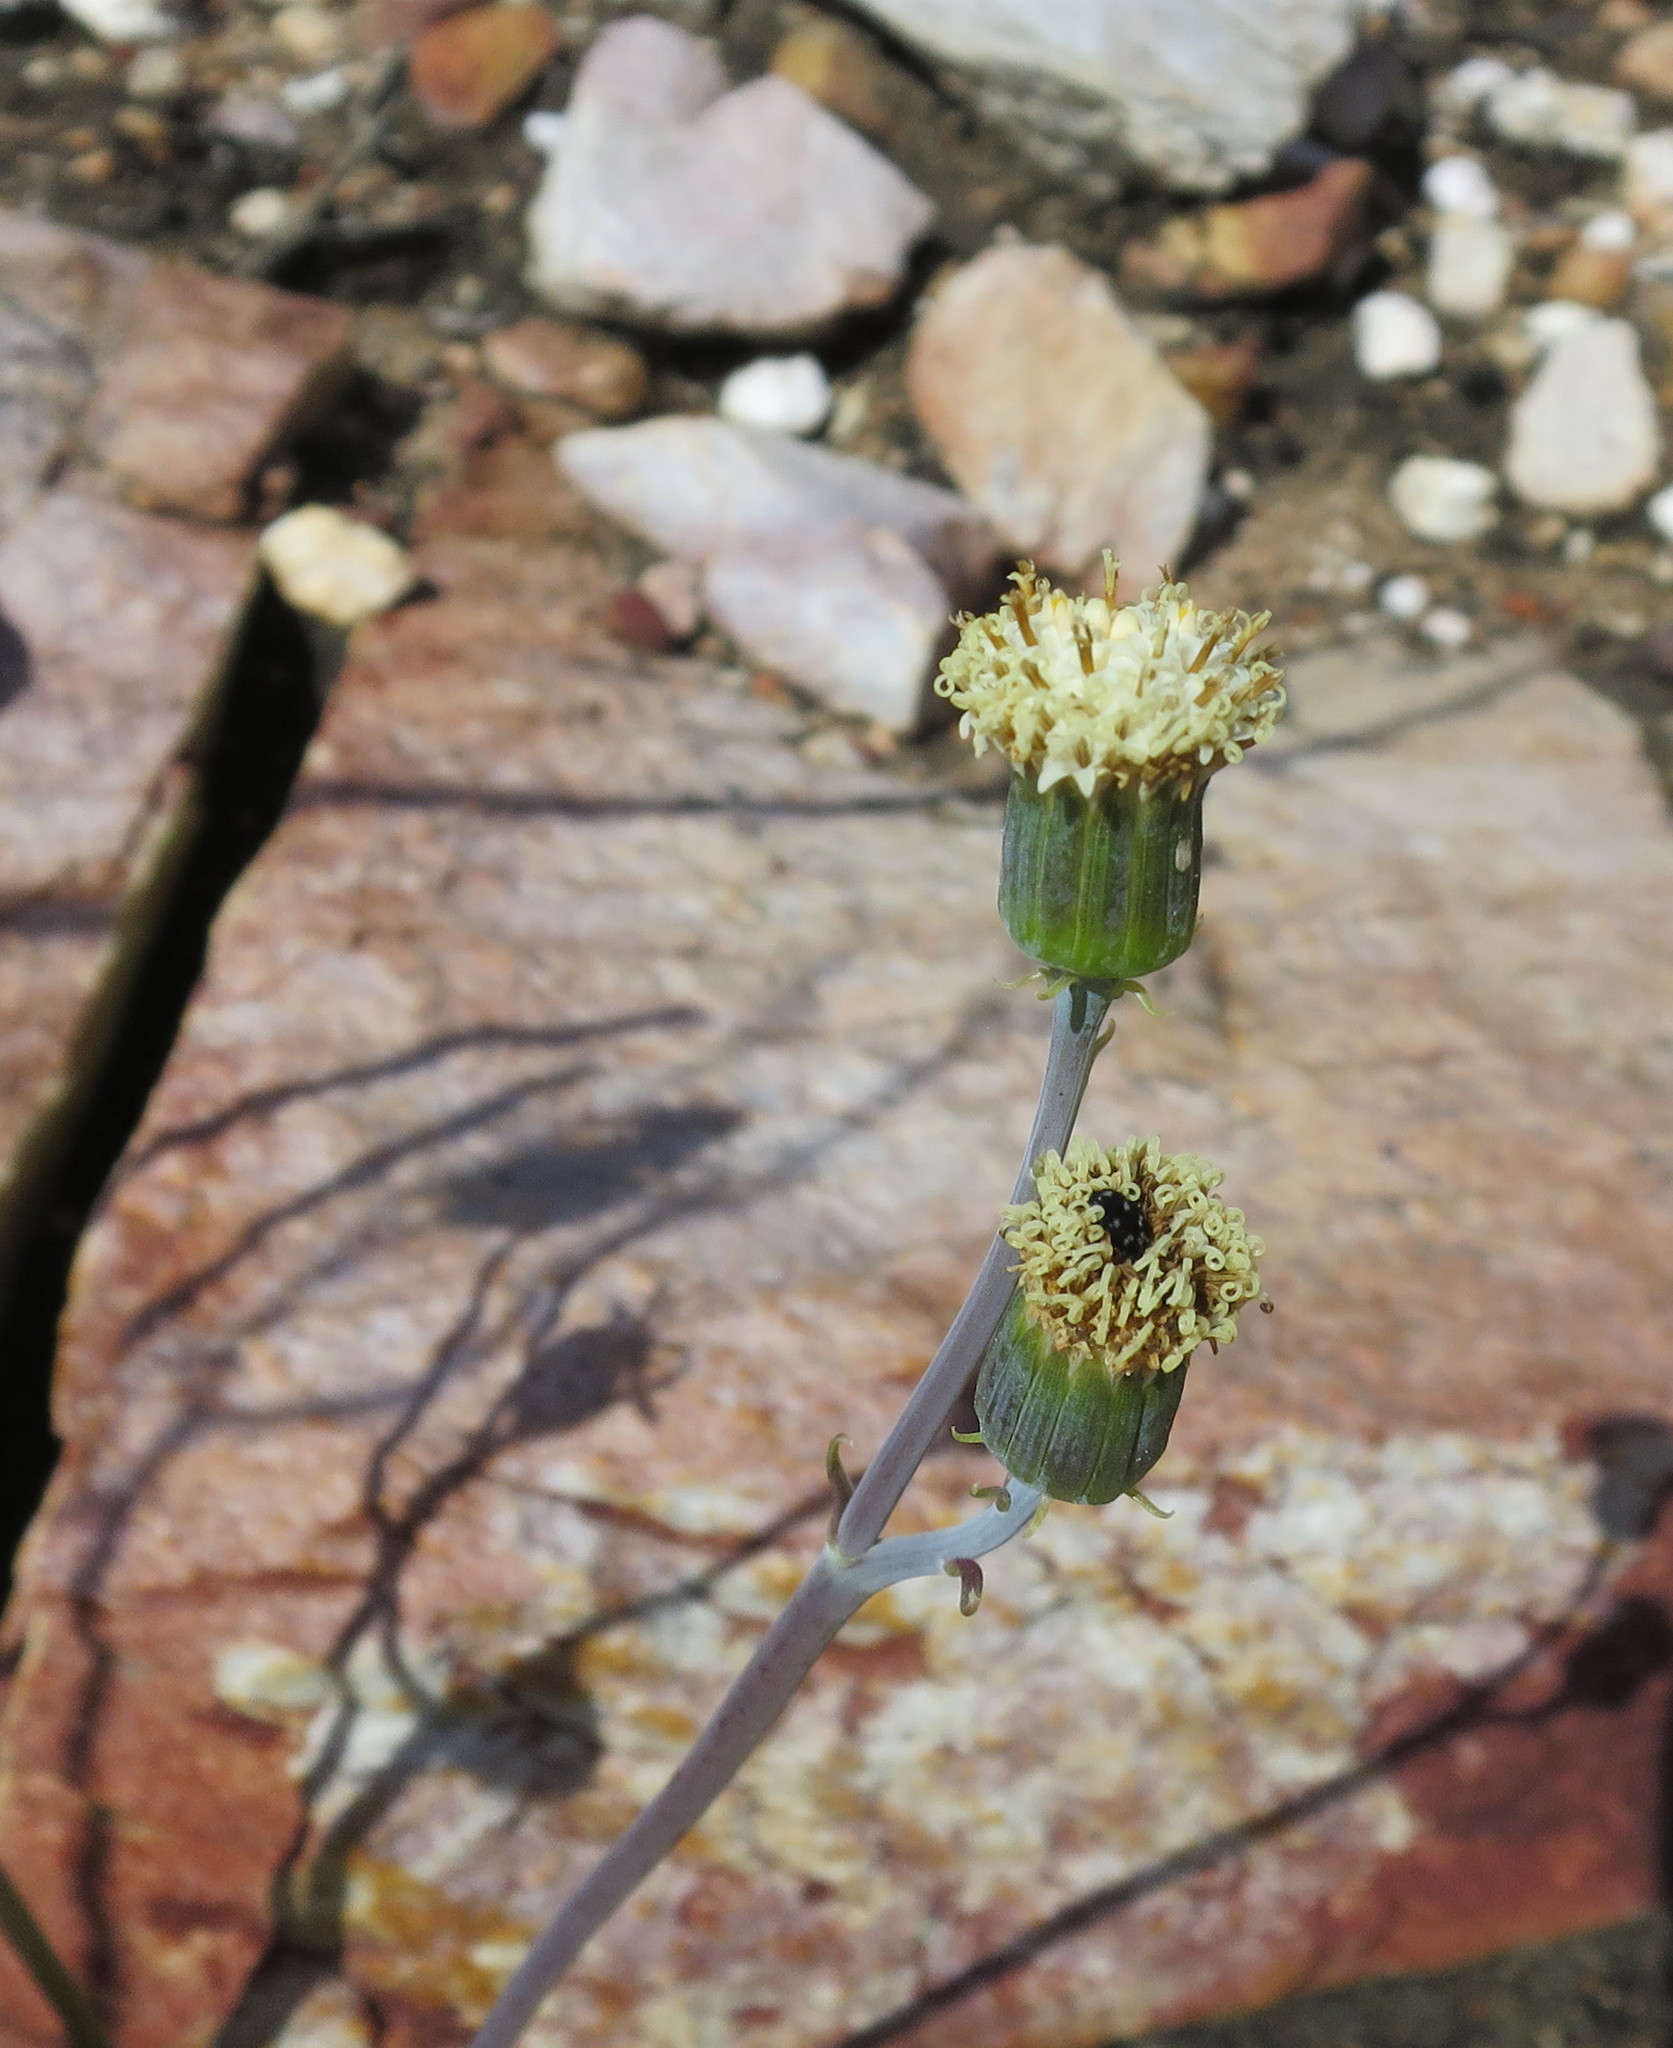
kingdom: Plantae
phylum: Tracheophyta
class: Magnoliopsida
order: Asterales
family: Asteraceae
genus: Curio
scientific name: Curio talinoides
